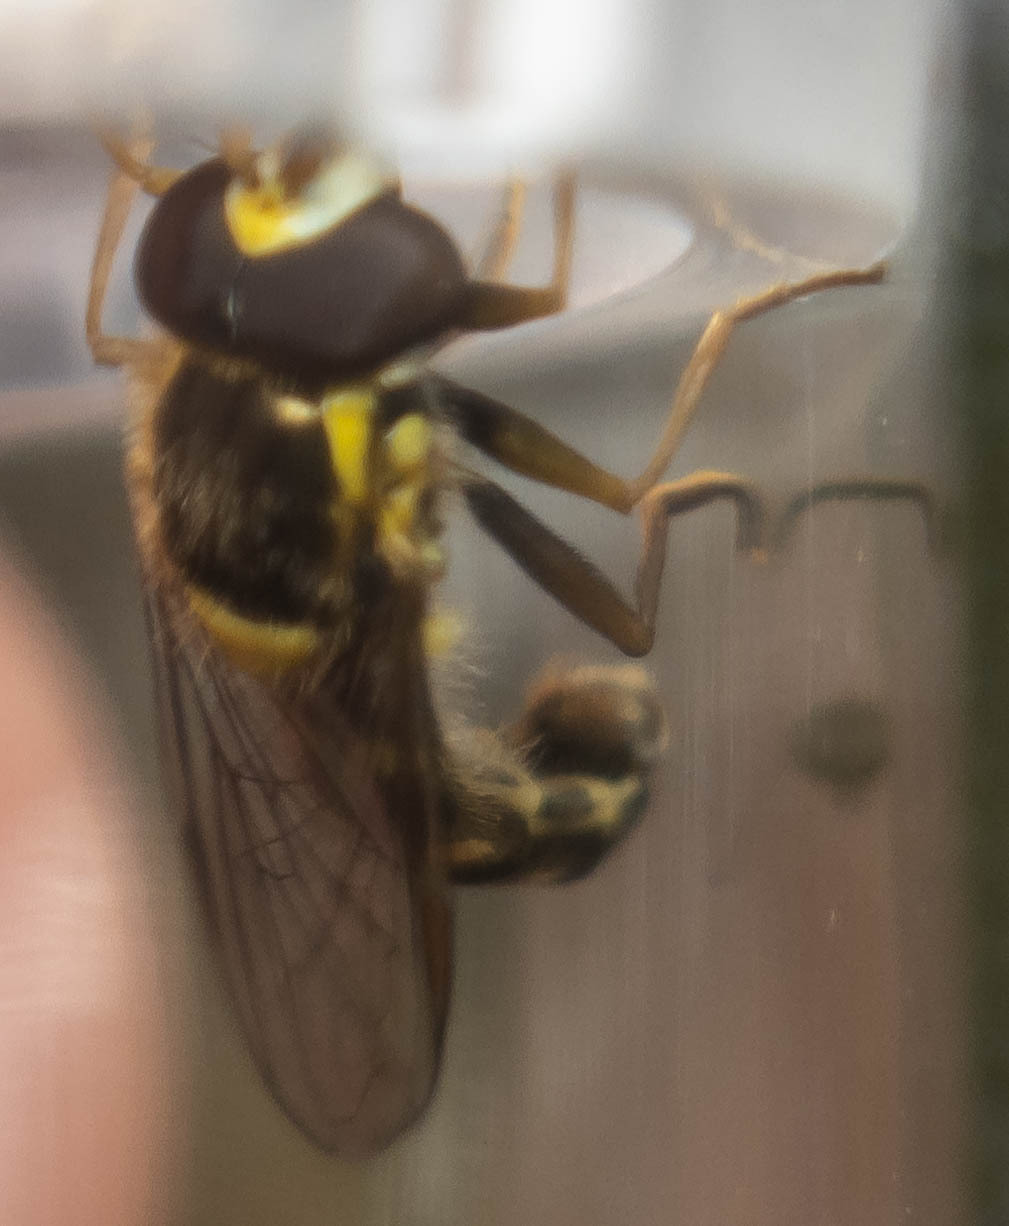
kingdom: Animalia
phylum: Arthropoda
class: Insecta
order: Diptera
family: Syrphidae
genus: Sphaerophoria
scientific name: Sphaerophoria
